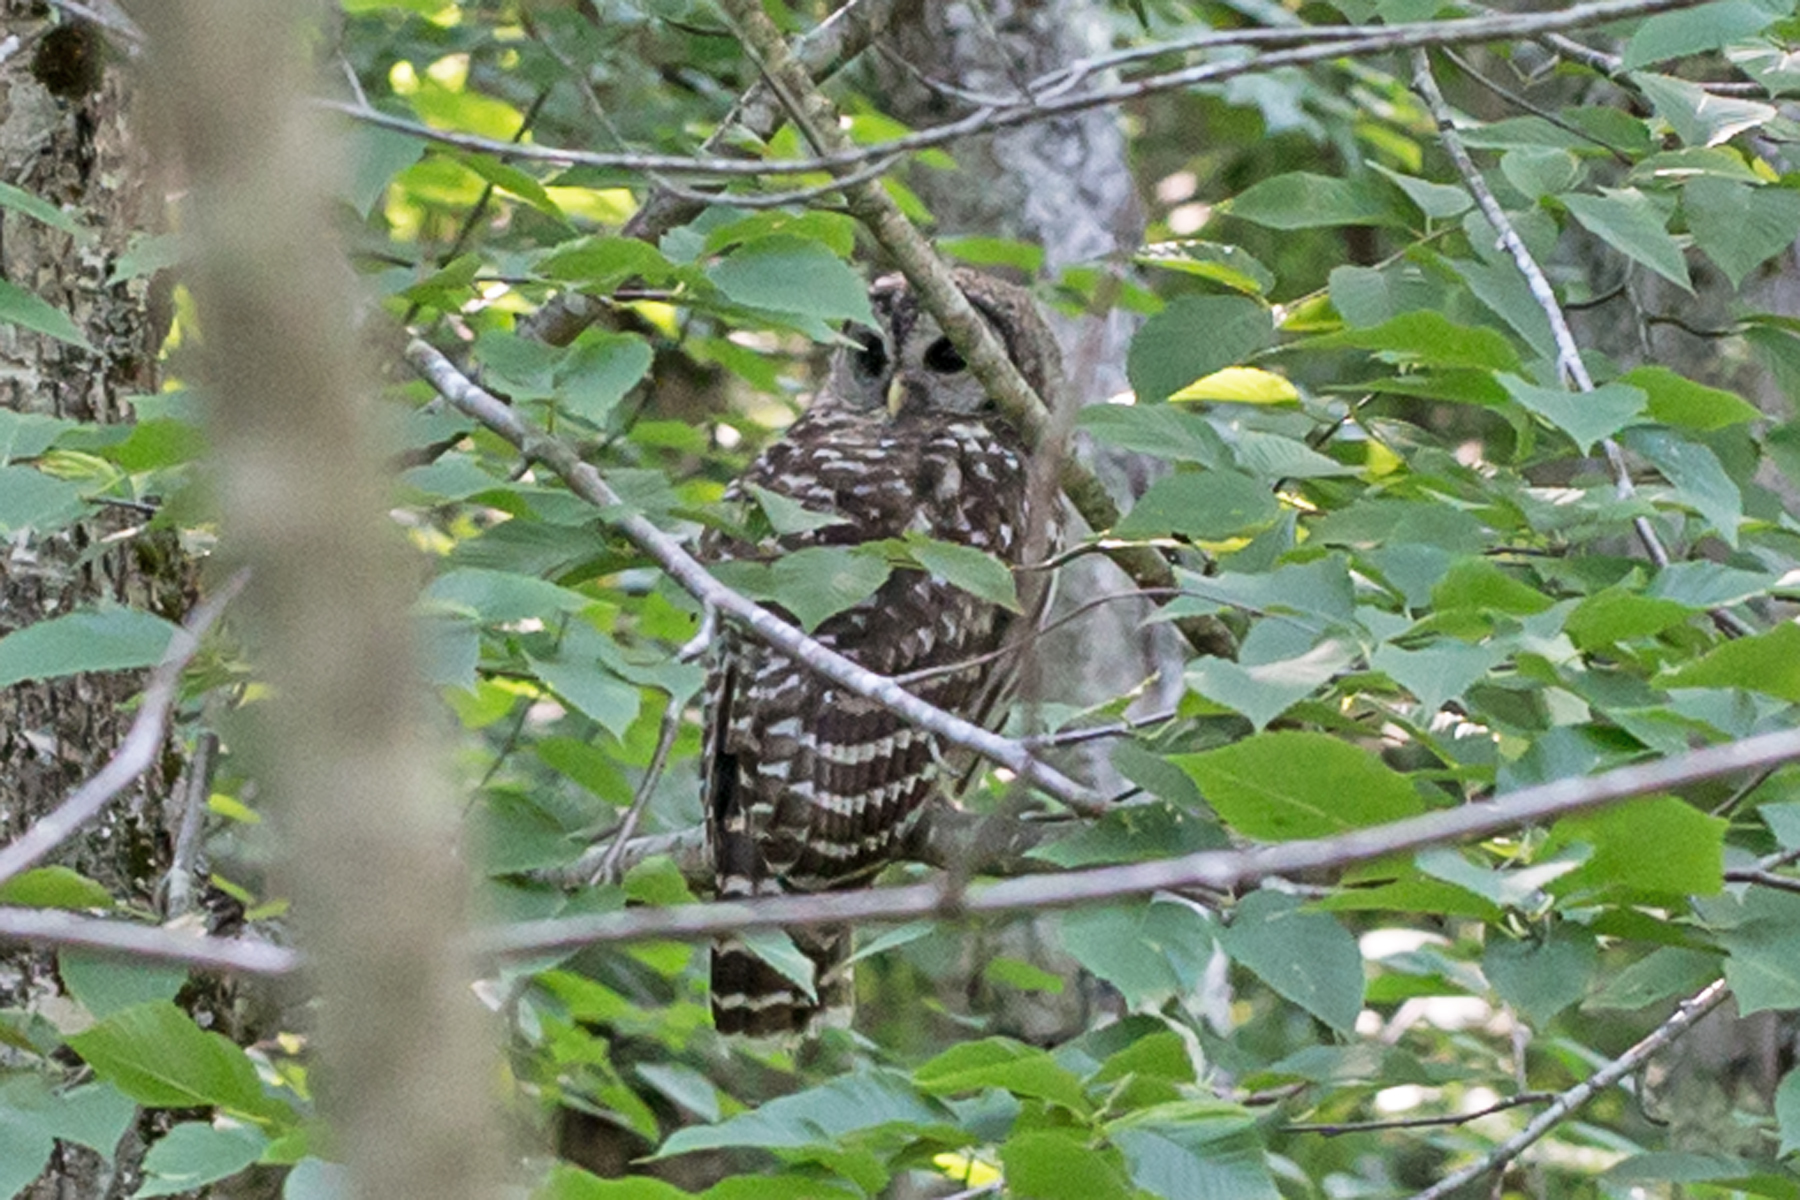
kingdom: Animalia
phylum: Chordata
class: Aves
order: Strigiformes
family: Strigidae
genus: Strix
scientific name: Strix varia
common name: Barred owl
